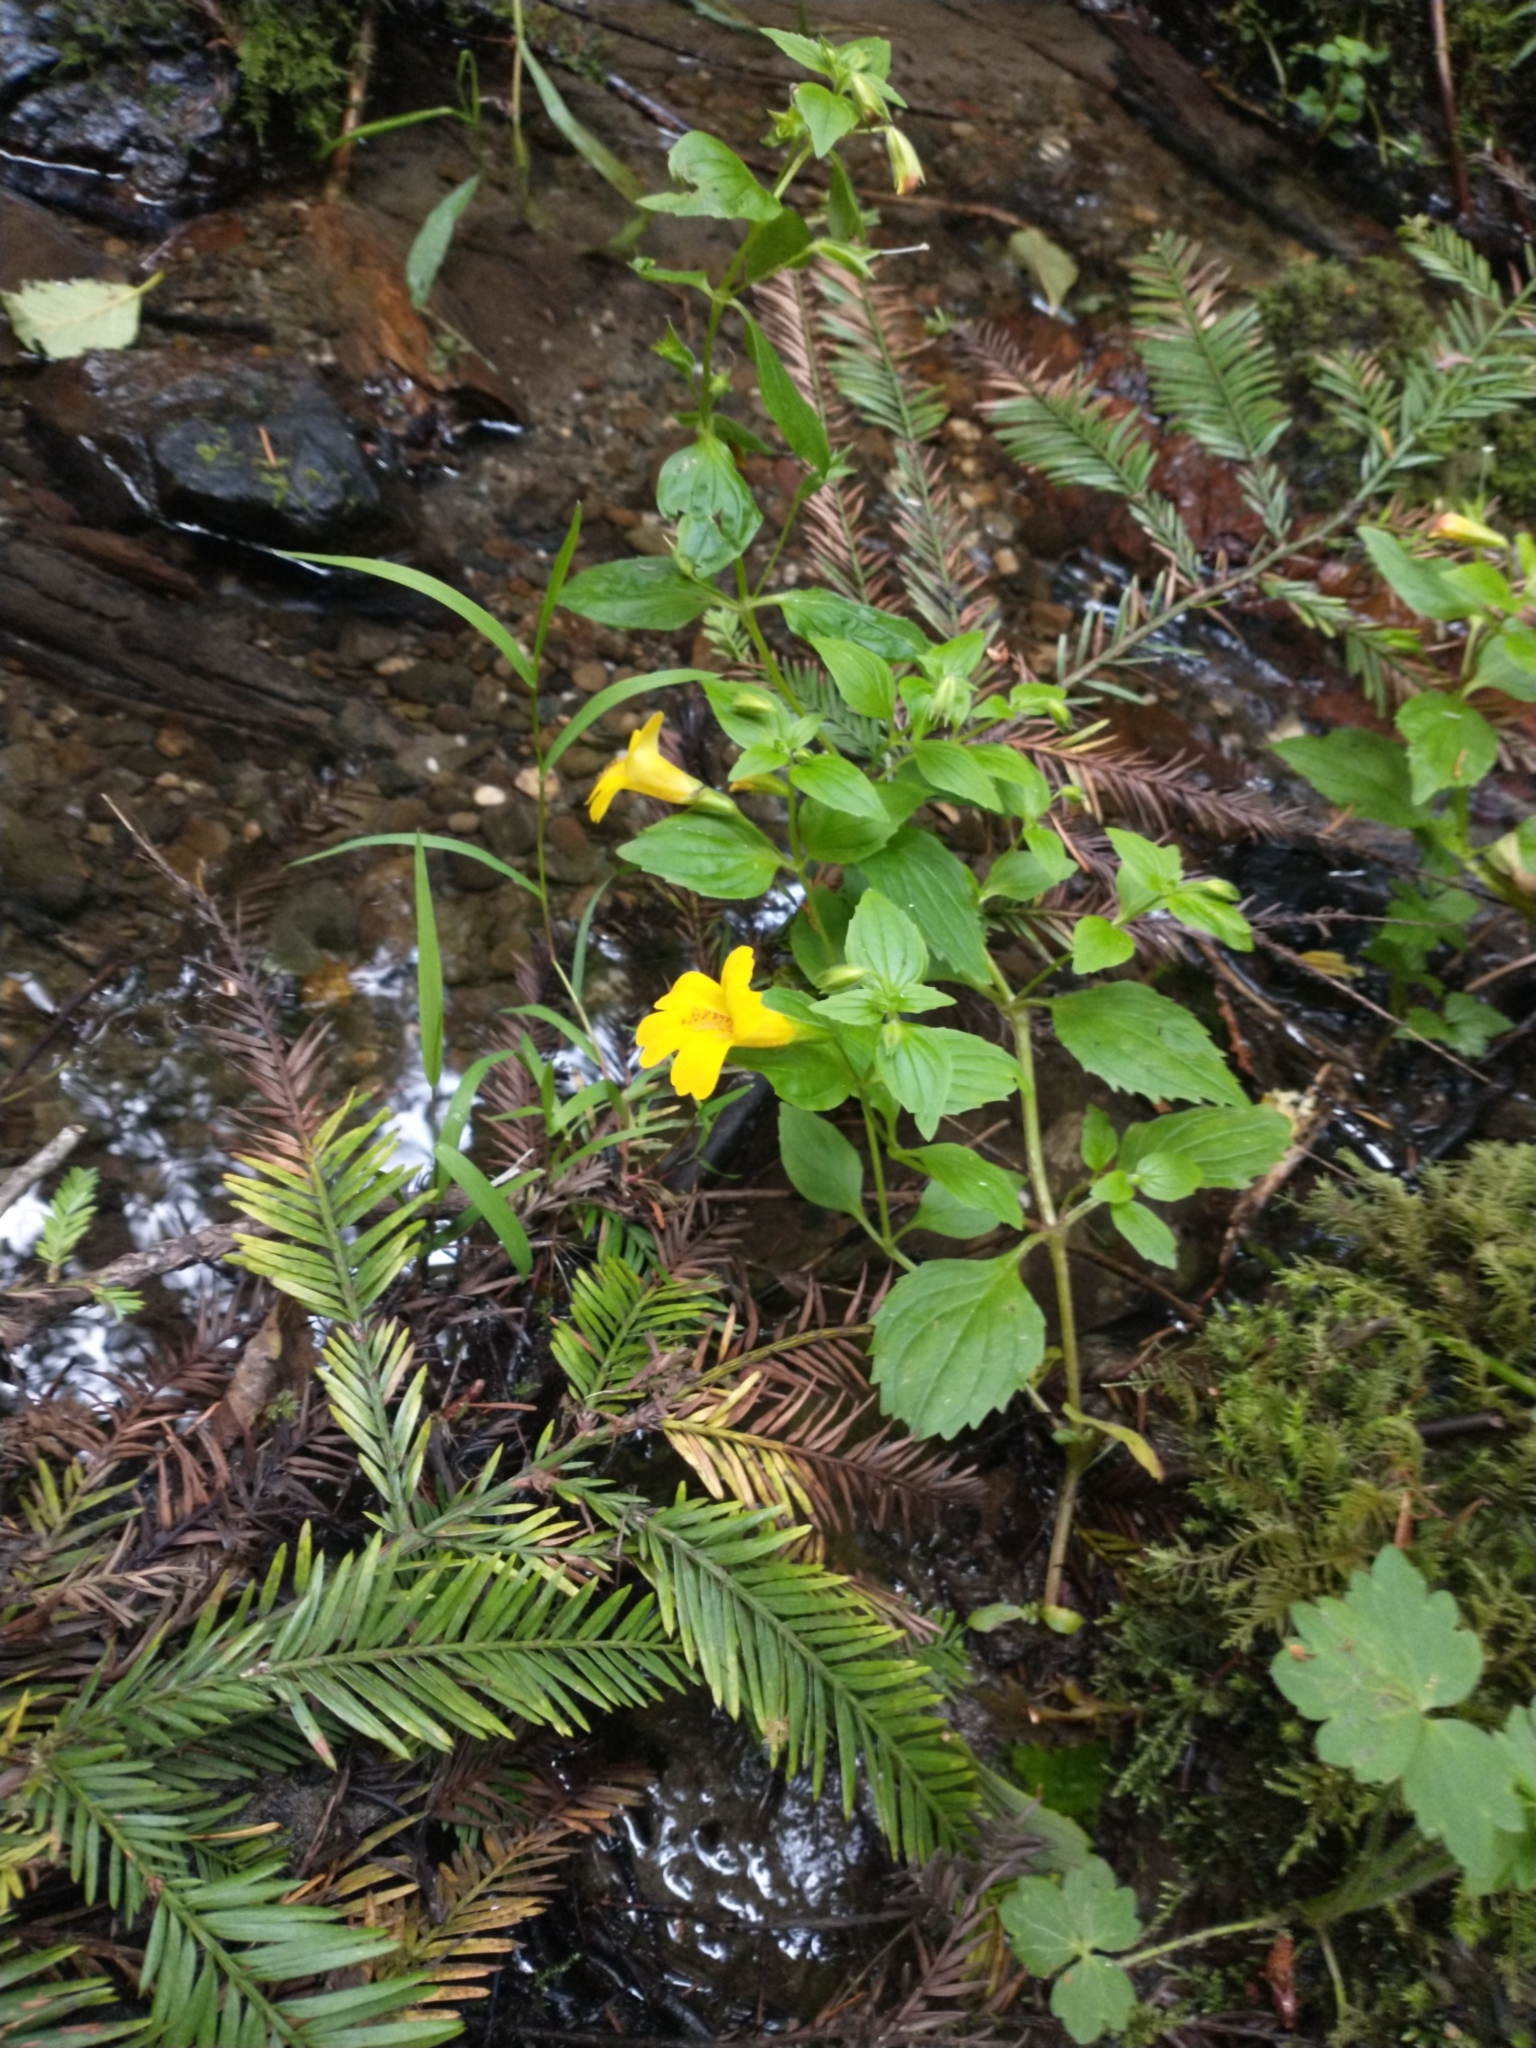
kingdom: Plantae
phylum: Tracheophyta
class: Magnoliopsida
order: Lamiales
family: Phrymaceae
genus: Erythranthe
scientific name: Erythranthe dentata
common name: Coastal monkeyflower
